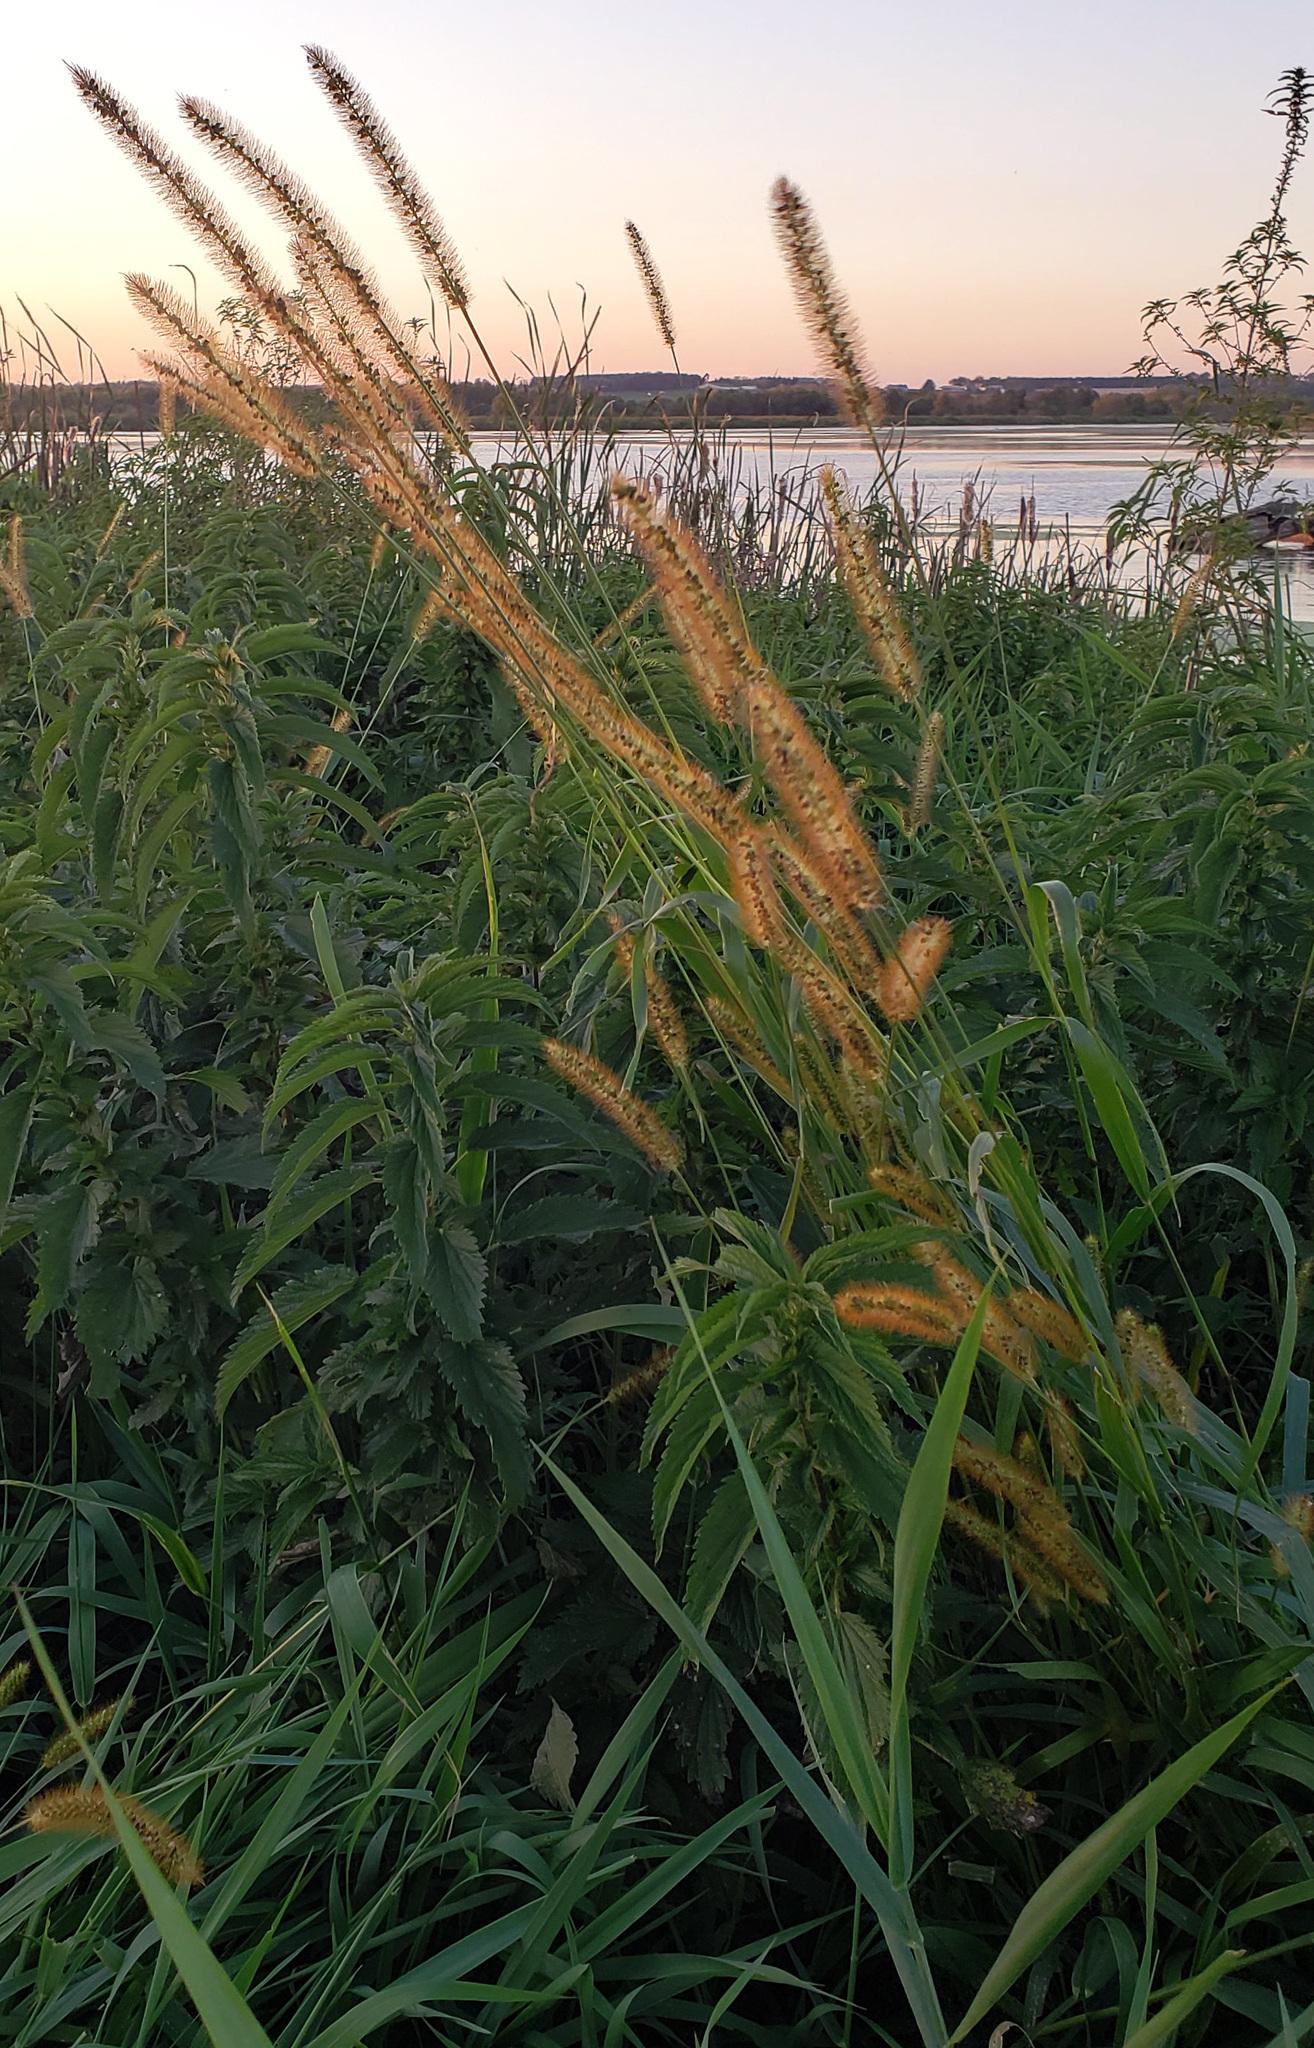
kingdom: Plantae
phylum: Tracheophyta
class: Liliopsida
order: Poales
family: Poaceae
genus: Setaria
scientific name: Setaria pumila
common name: Yellow bristle-grass
